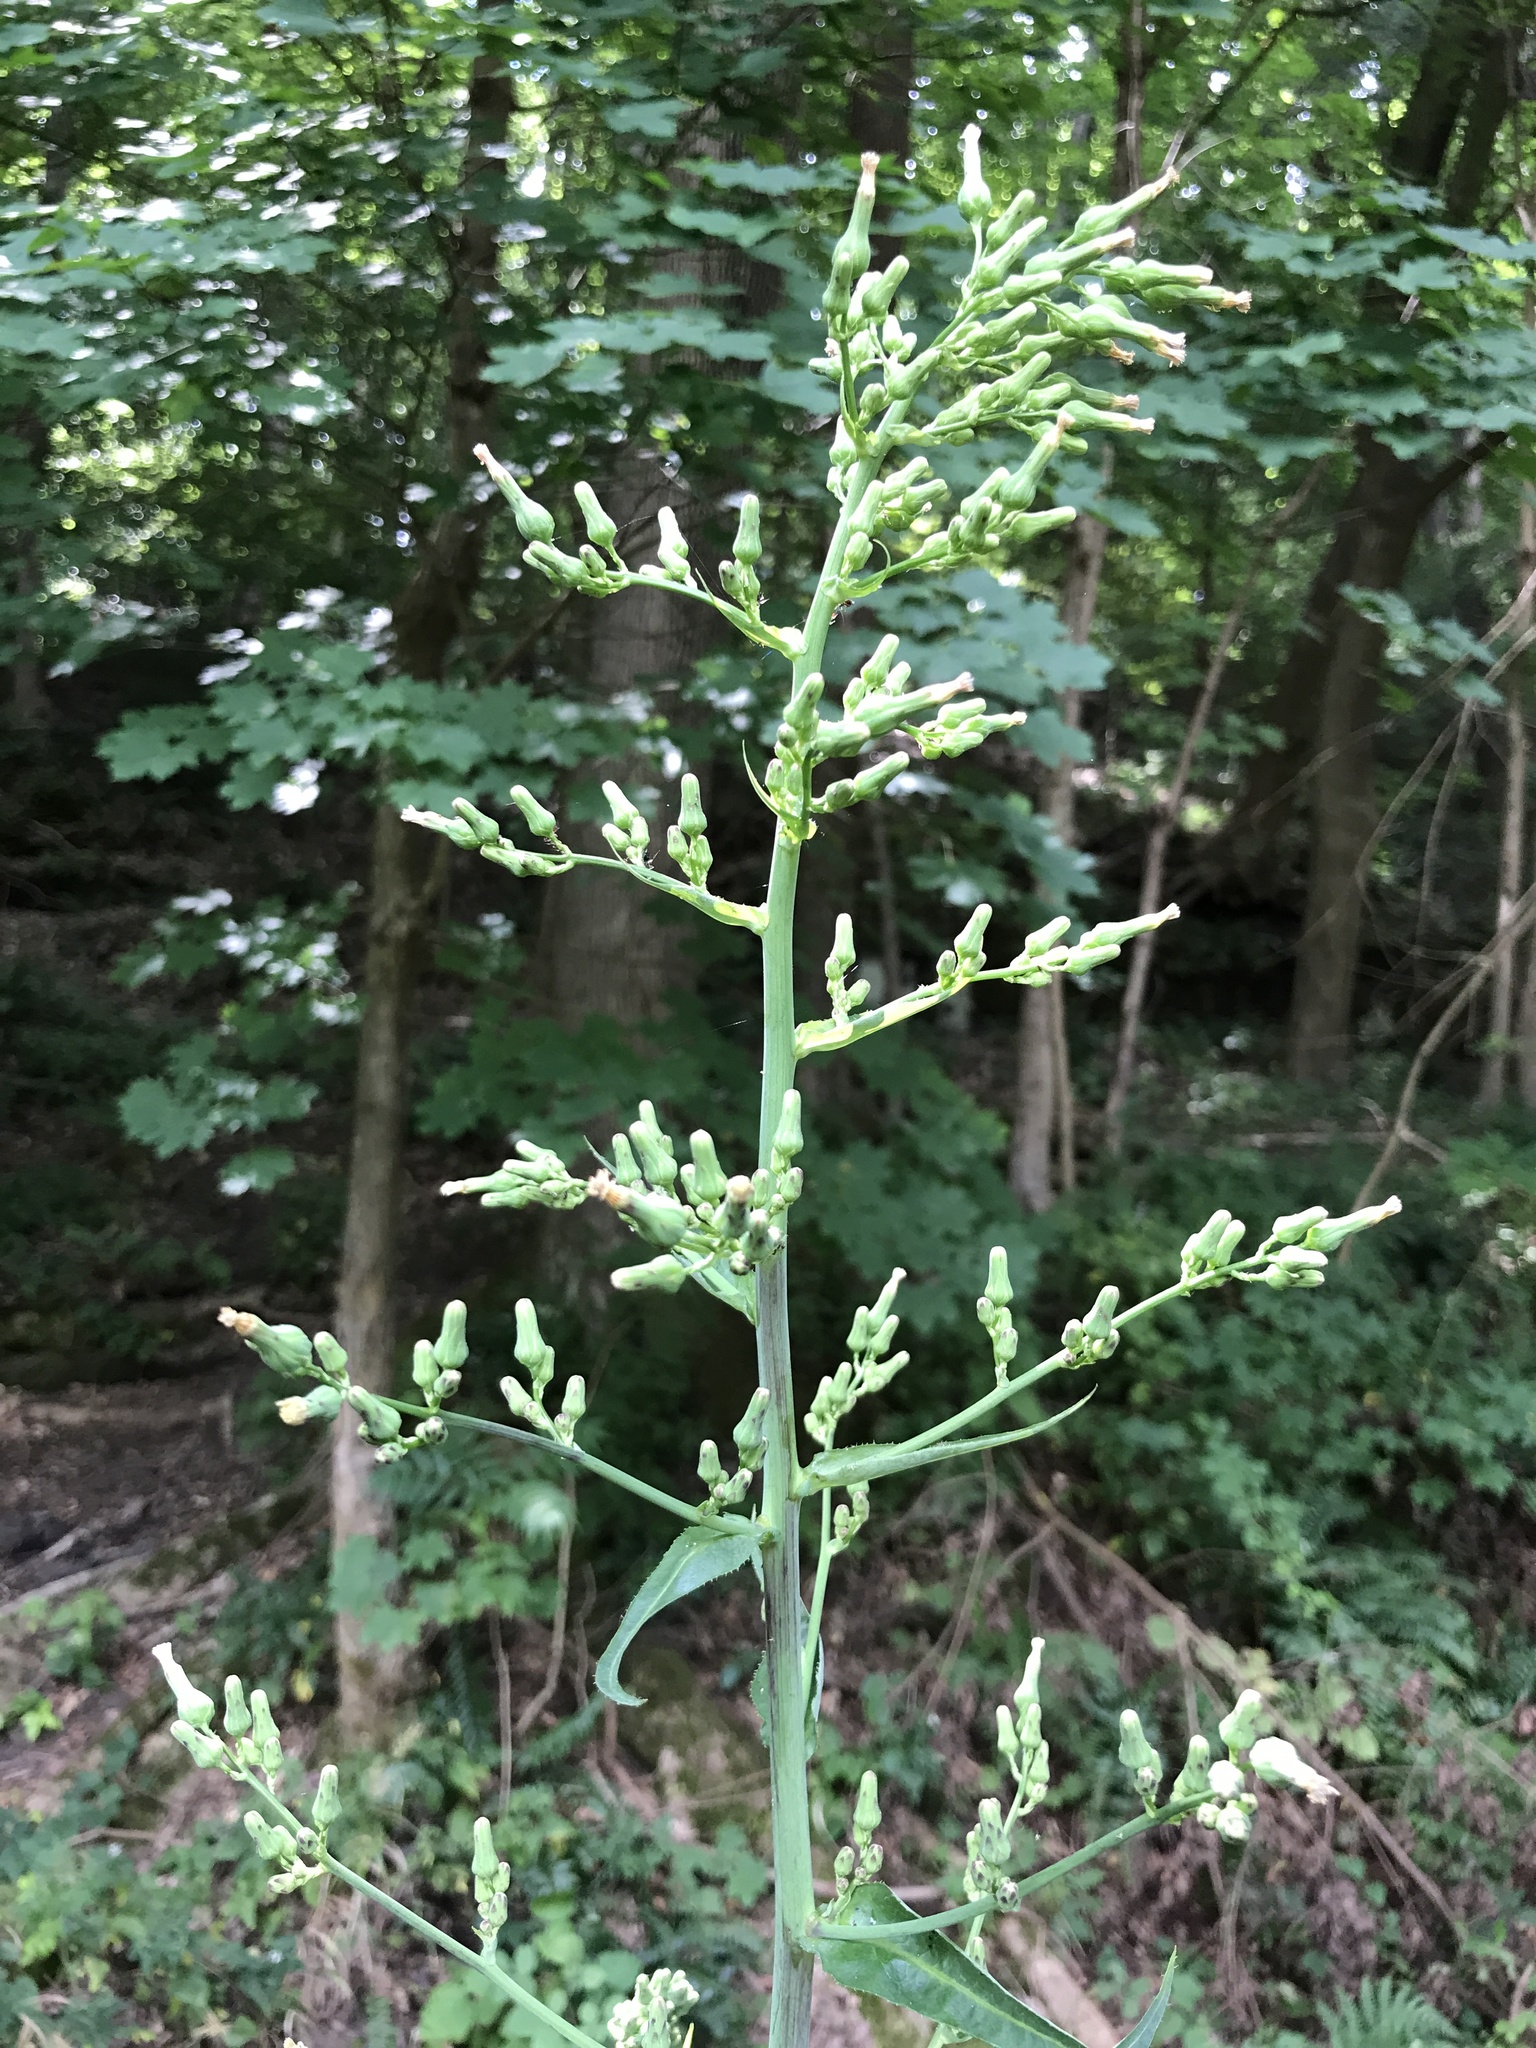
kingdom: Plantae
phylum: Tracheophyta
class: Magnoliopsida
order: Asterales
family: Asteraceae
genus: Lactuca
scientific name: Lactuca biennis
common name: Blue wood lettuce
